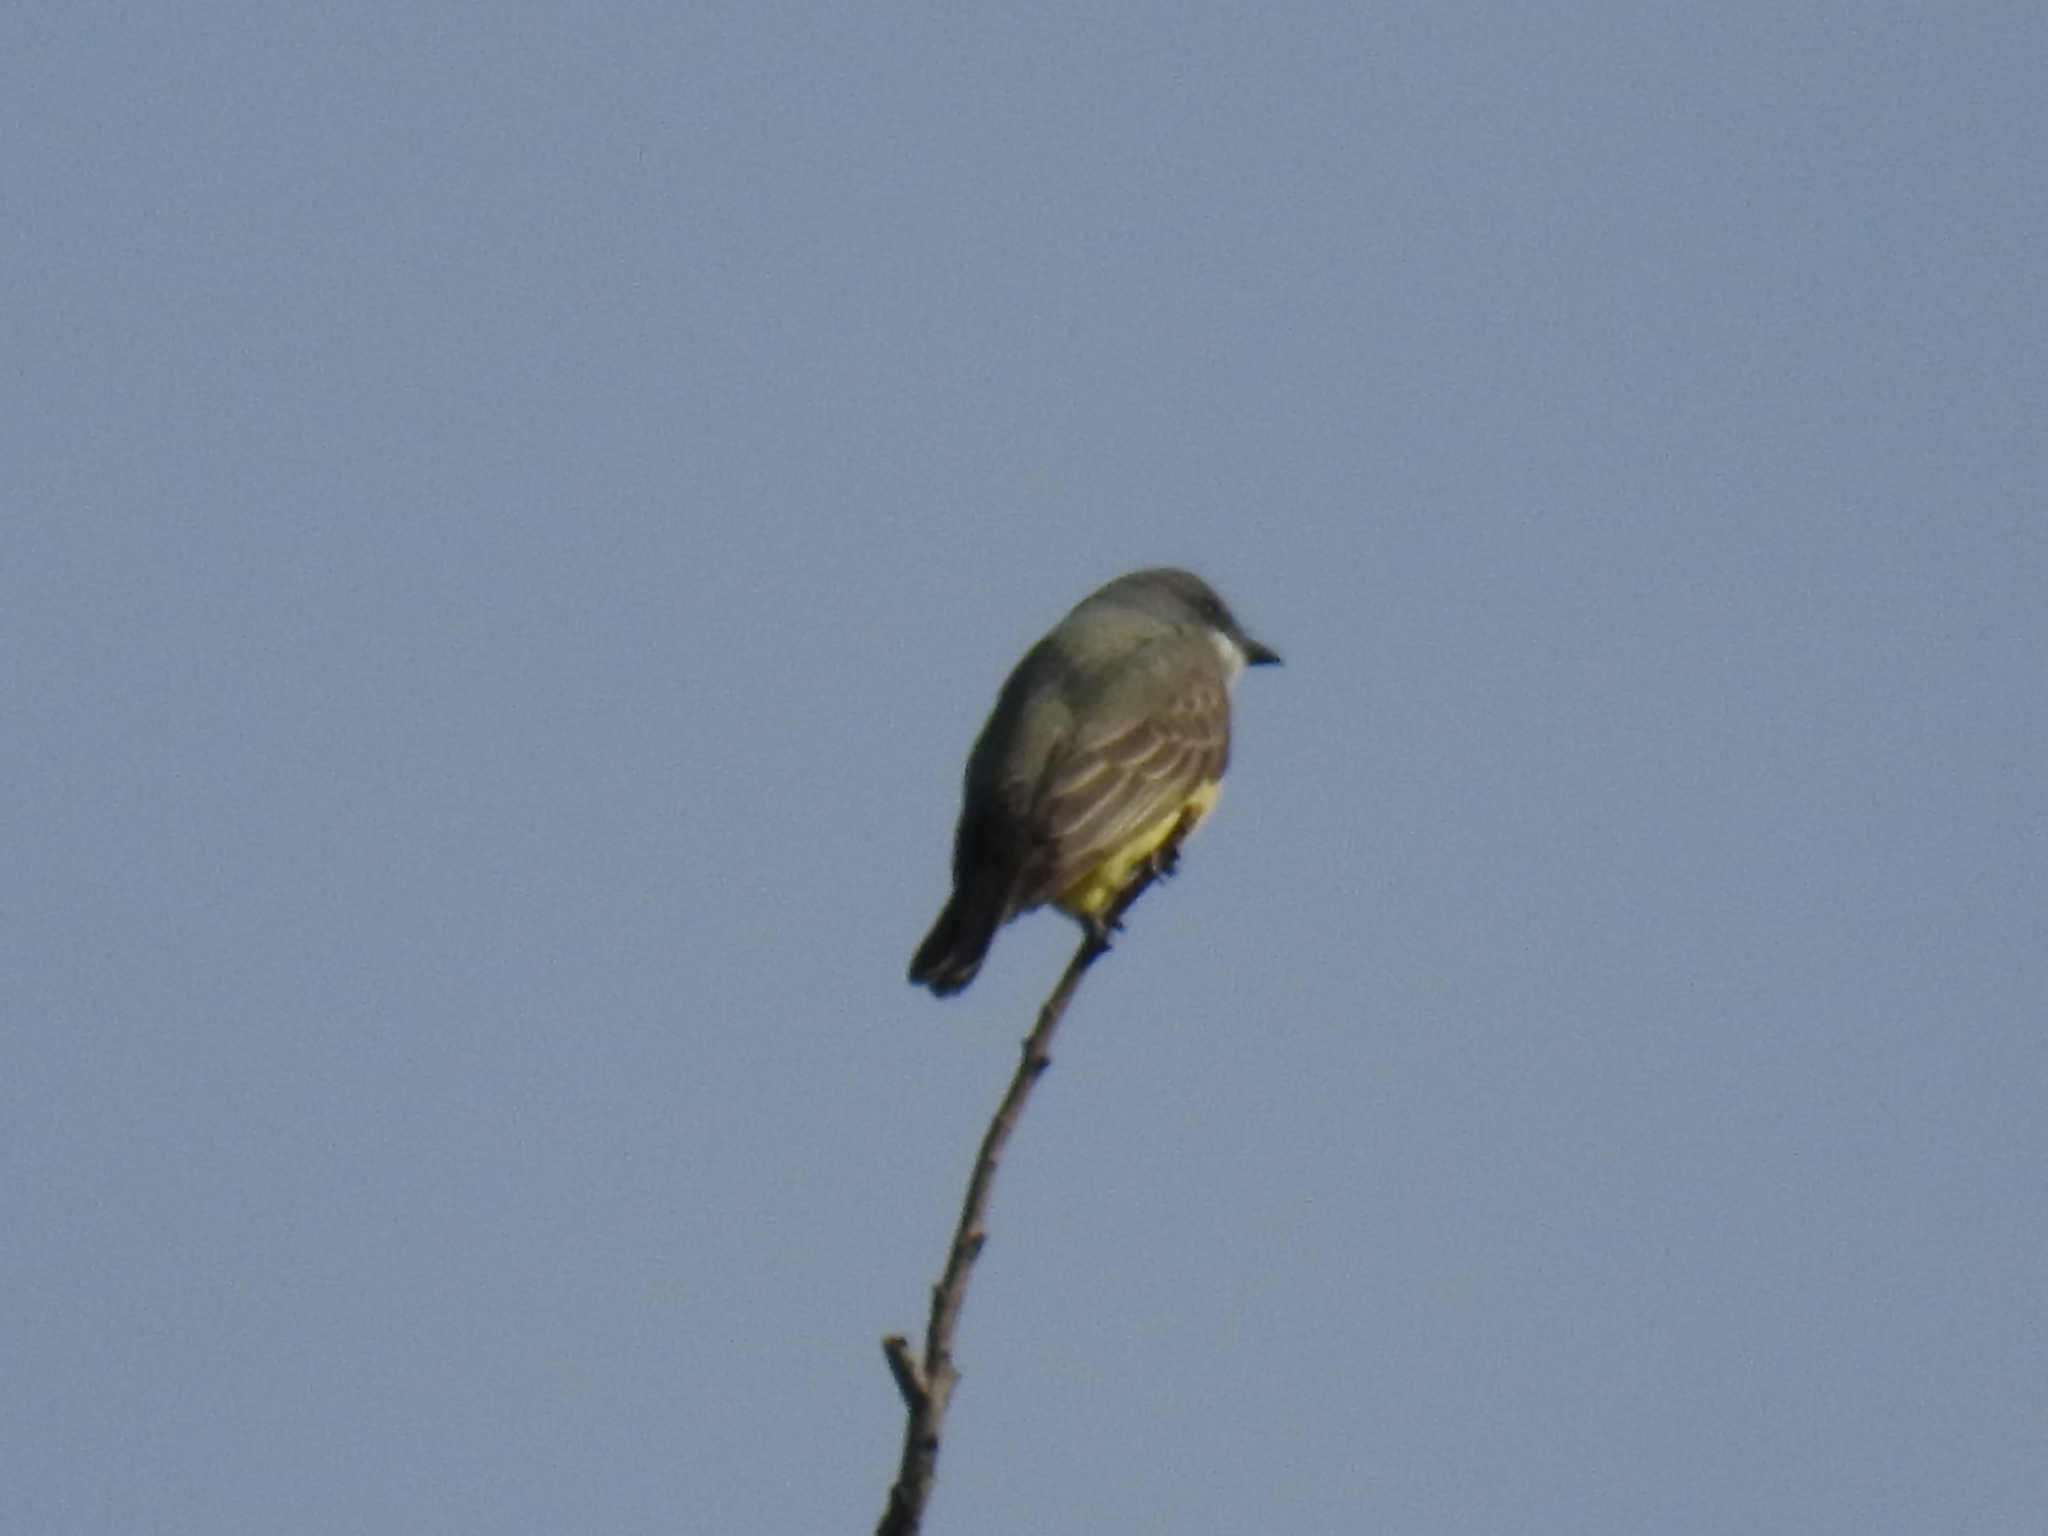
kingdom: Animalia
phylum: Chordata
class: Aves
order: Passeriformes
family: Tyrannidae
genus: Tyrannus
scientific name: Tyrannus vociferans
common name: Cassin's kingbird
